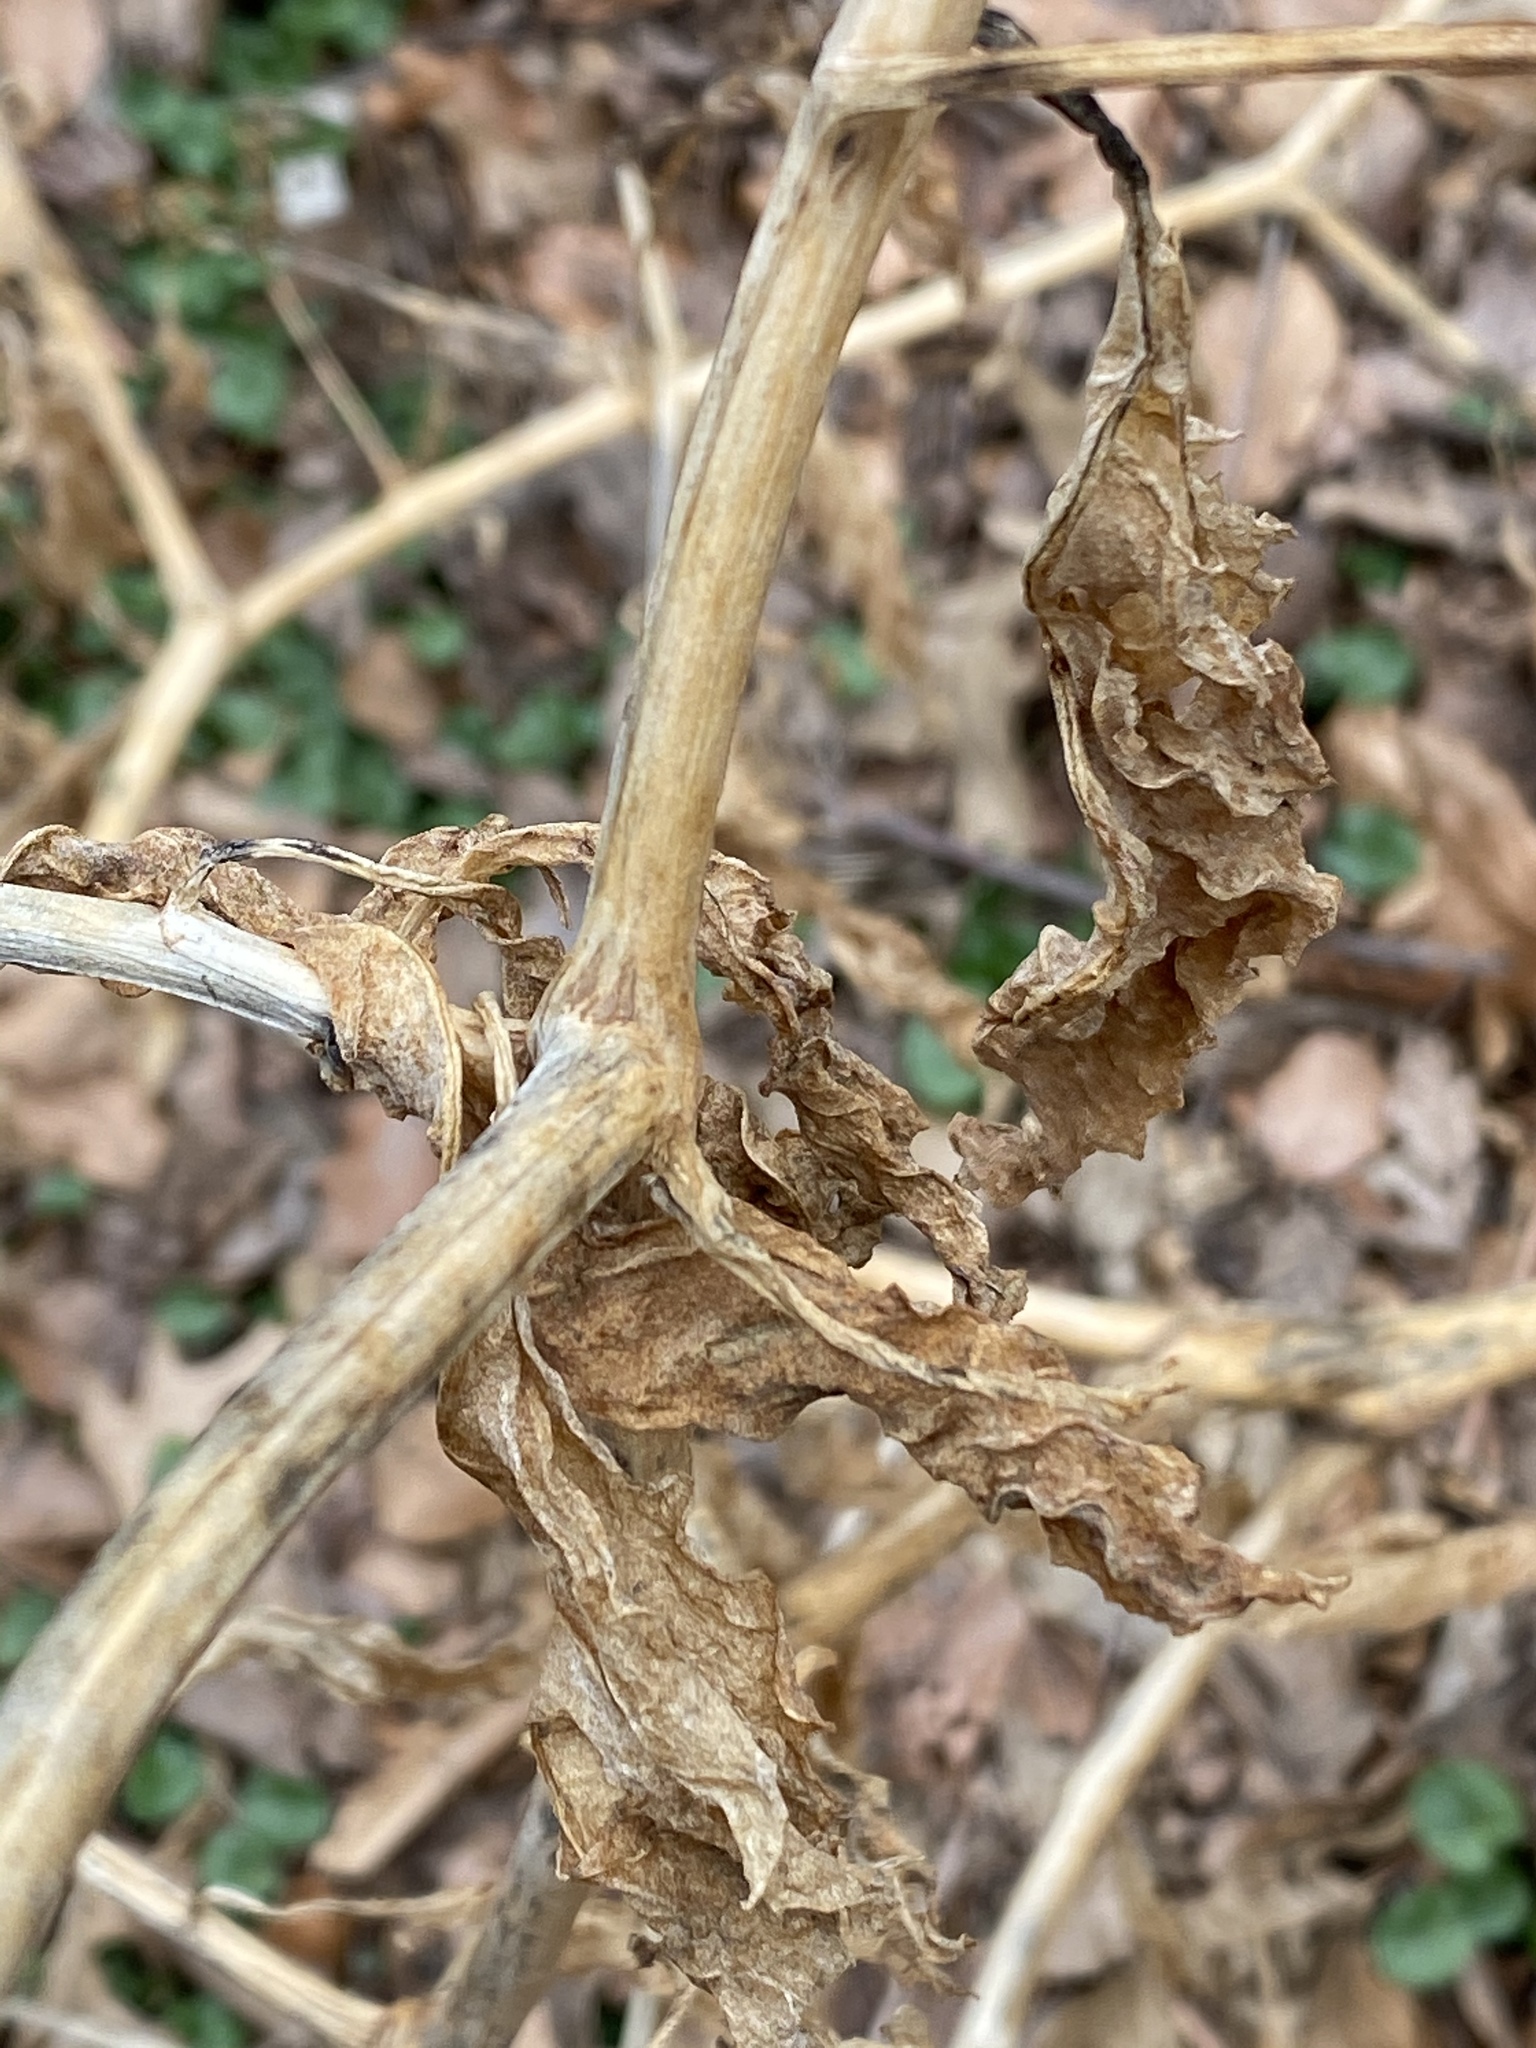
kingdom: Plantae
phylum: Tracheophyta
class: Magnoliopsida
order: Caryophyllales
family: Phytolaccaceae
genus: Phytolacca
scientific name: Phytolacca americana
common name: American pokeweed
